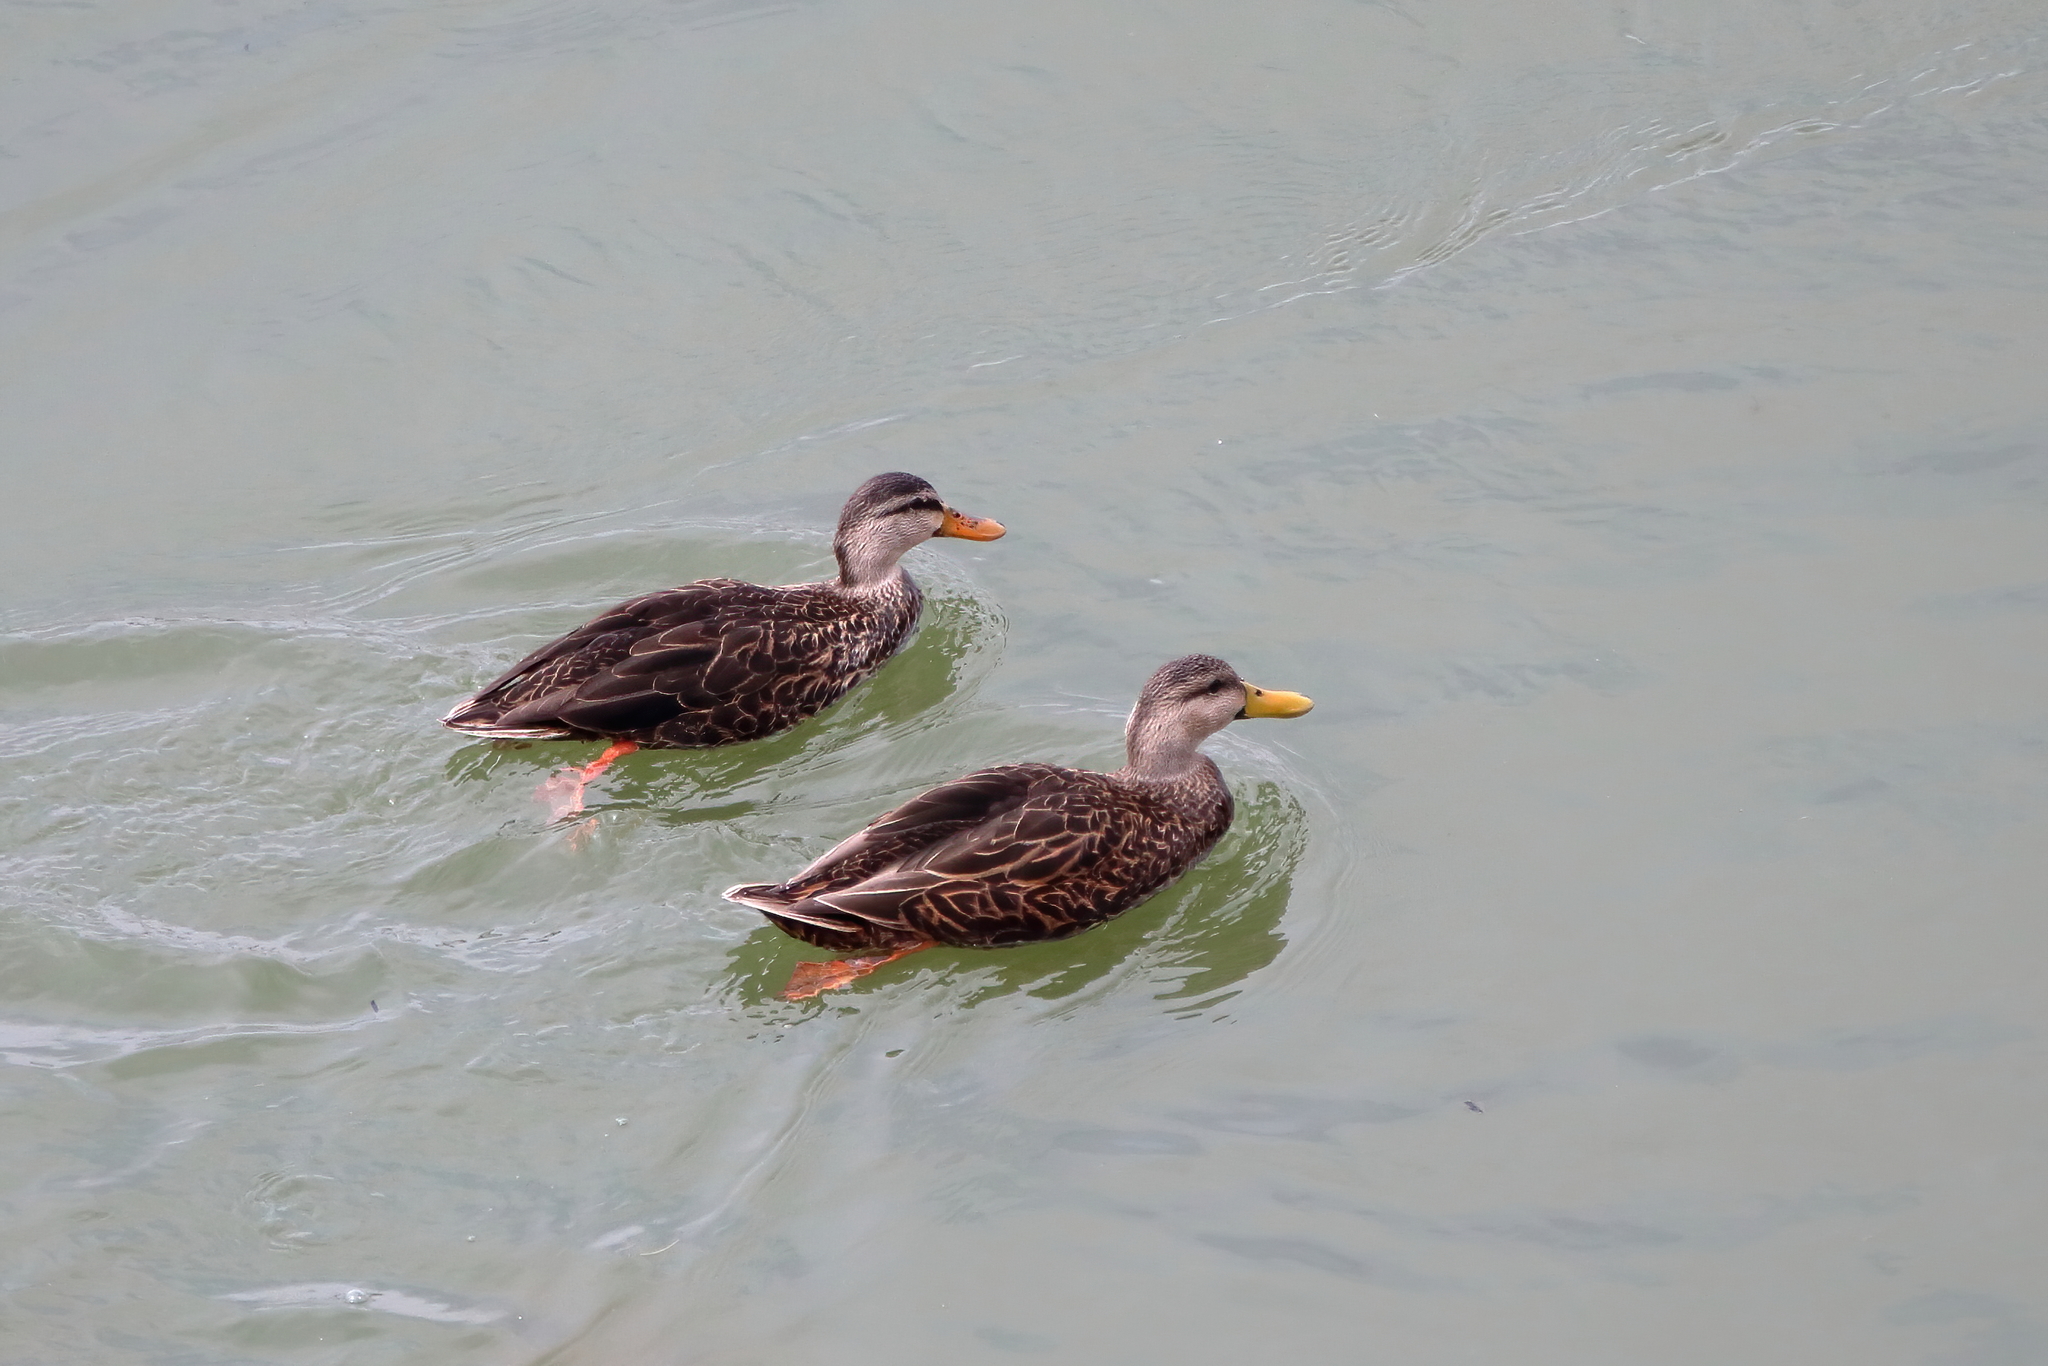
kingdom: Animalia
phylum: Chordata
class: Aves
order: Anseriformes
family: Anatidae
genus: Anas
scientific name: Anas fulvigula
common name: Mottled duck
